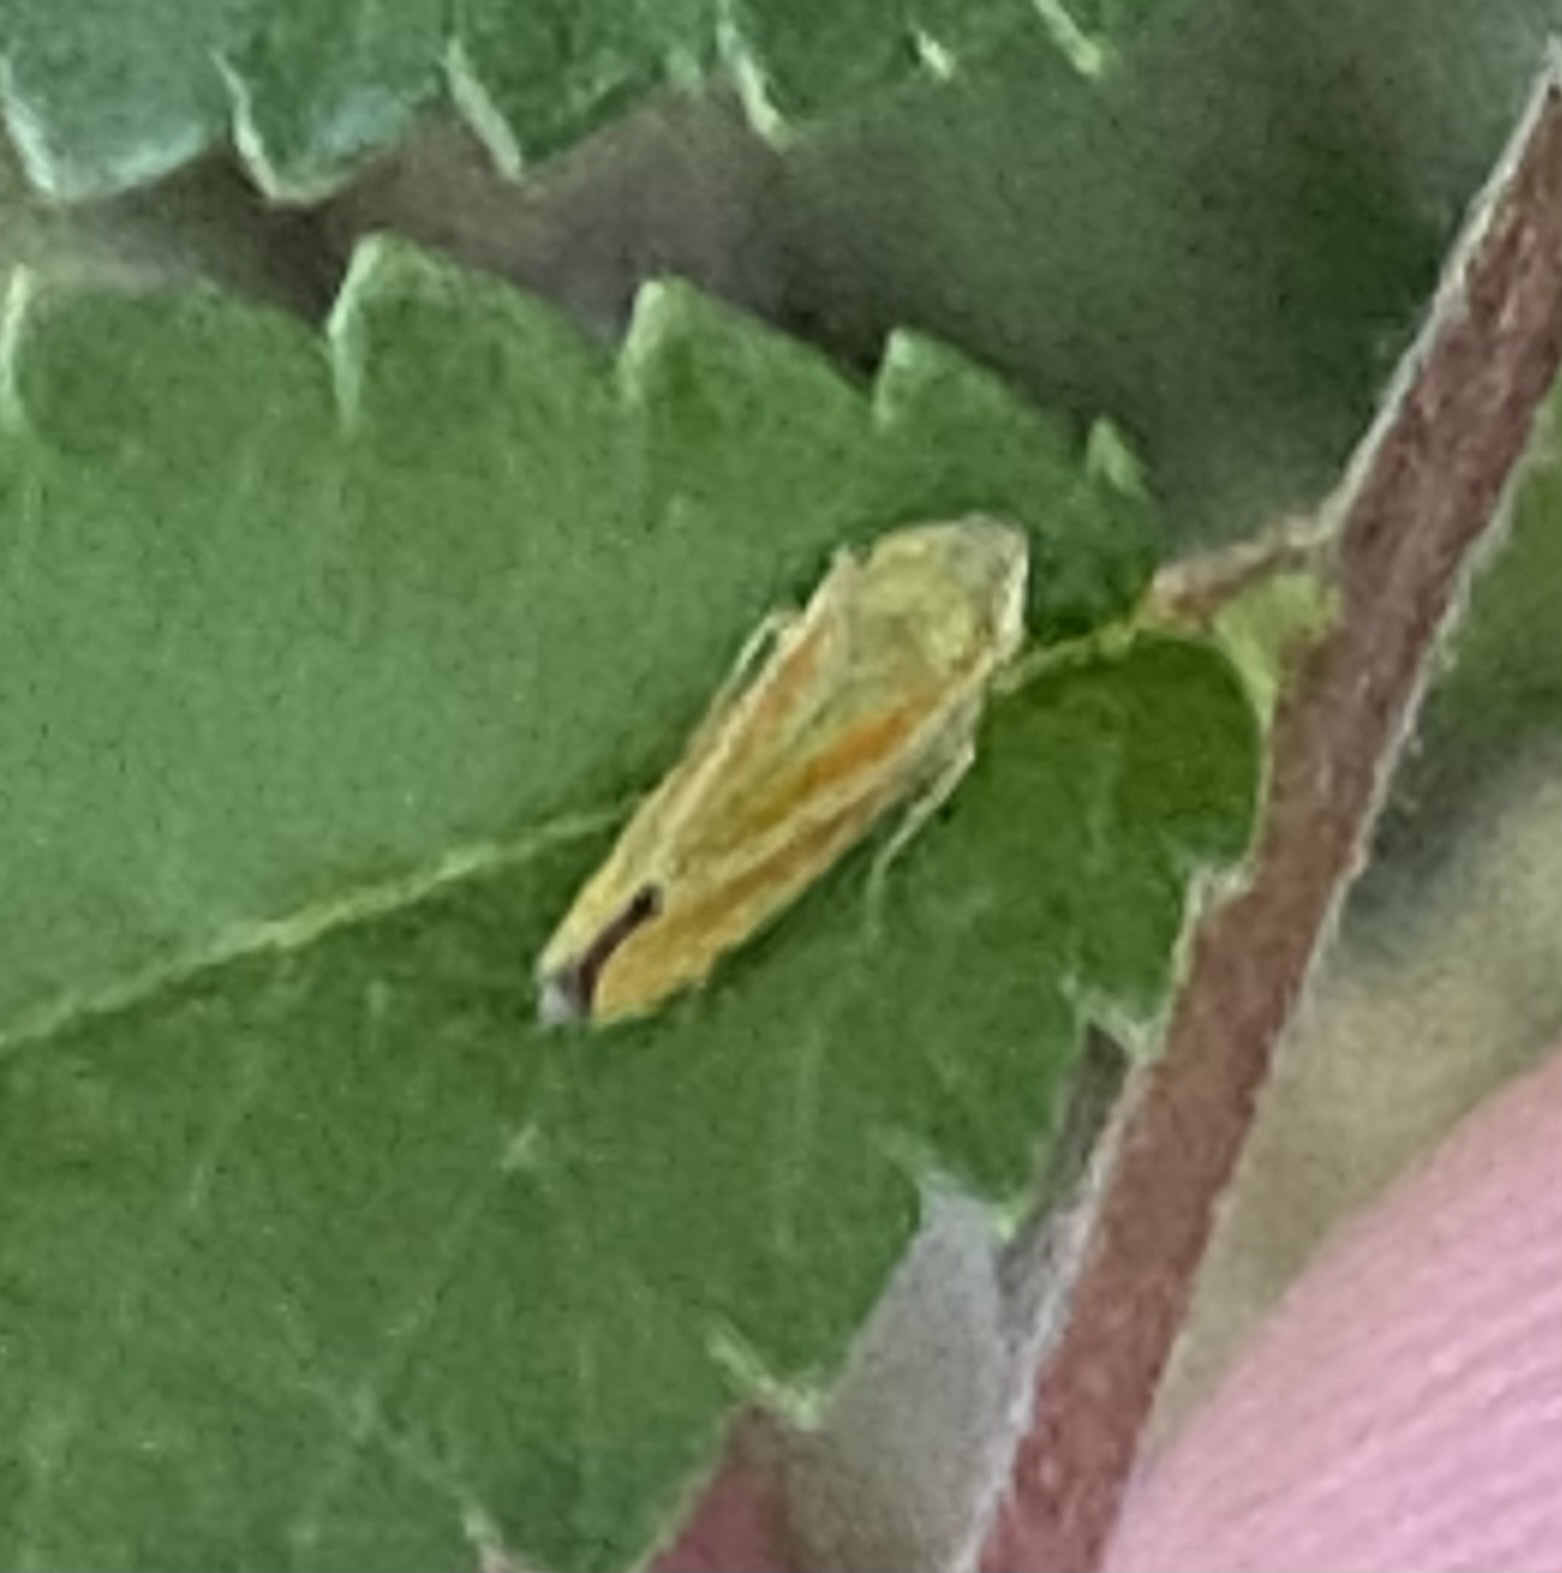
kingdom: Animalia
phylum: Arthropoda
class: Insecta
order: Hemiptera
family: Cicadellidae
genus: Graphocephala
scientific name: Graphocephala versuta
